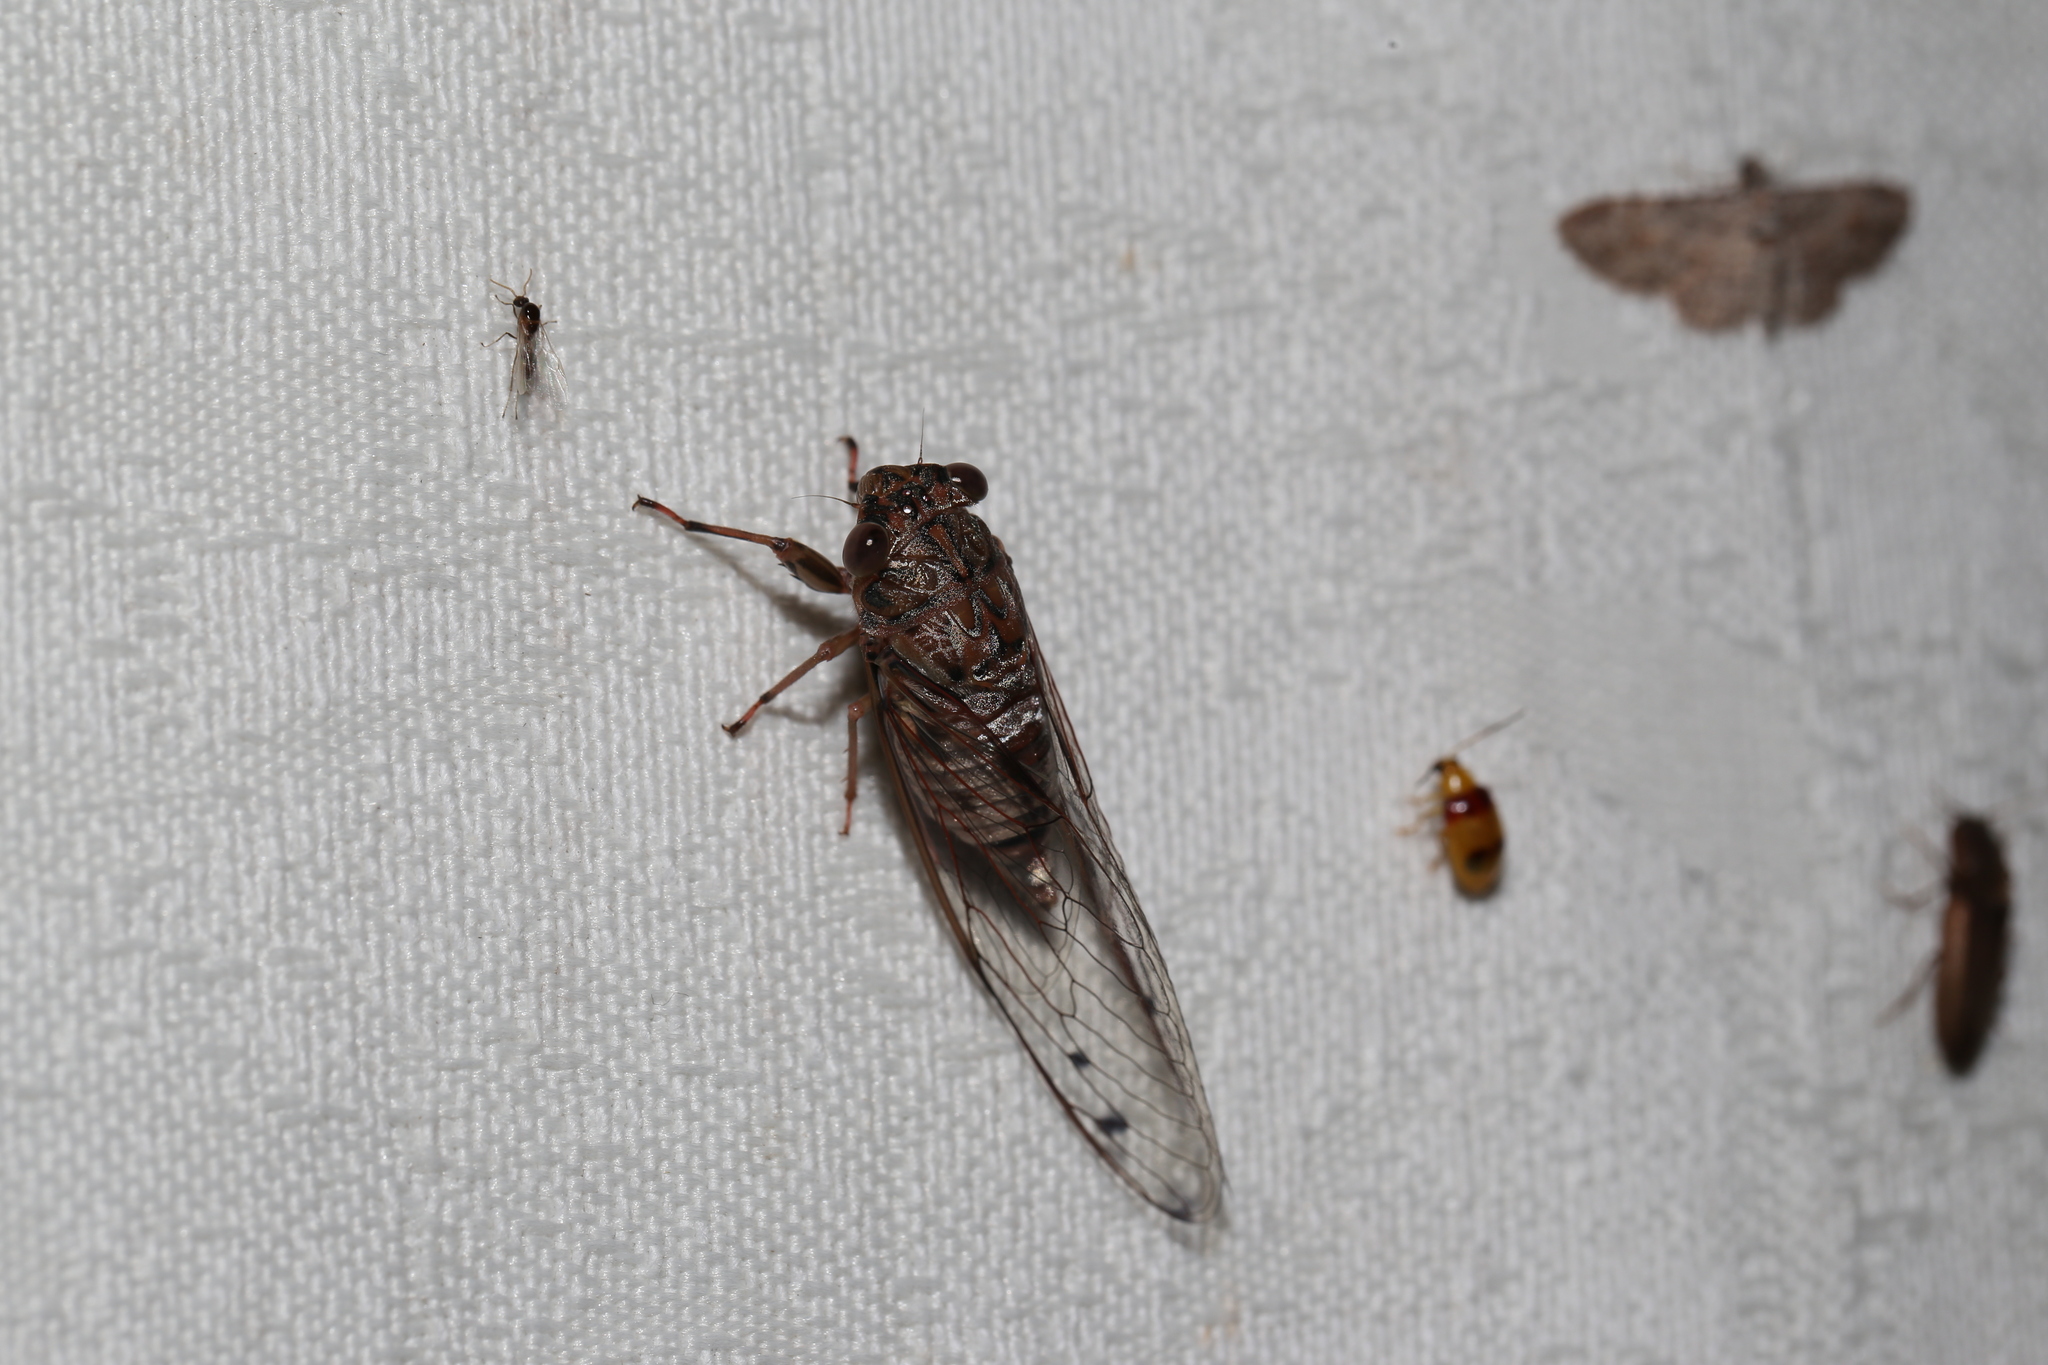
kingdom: Animalia
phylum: Arthropoda
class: Insecta
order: Hemiptera
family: Cicadidae
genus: Tamasa
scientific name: Tamasa tristigma
